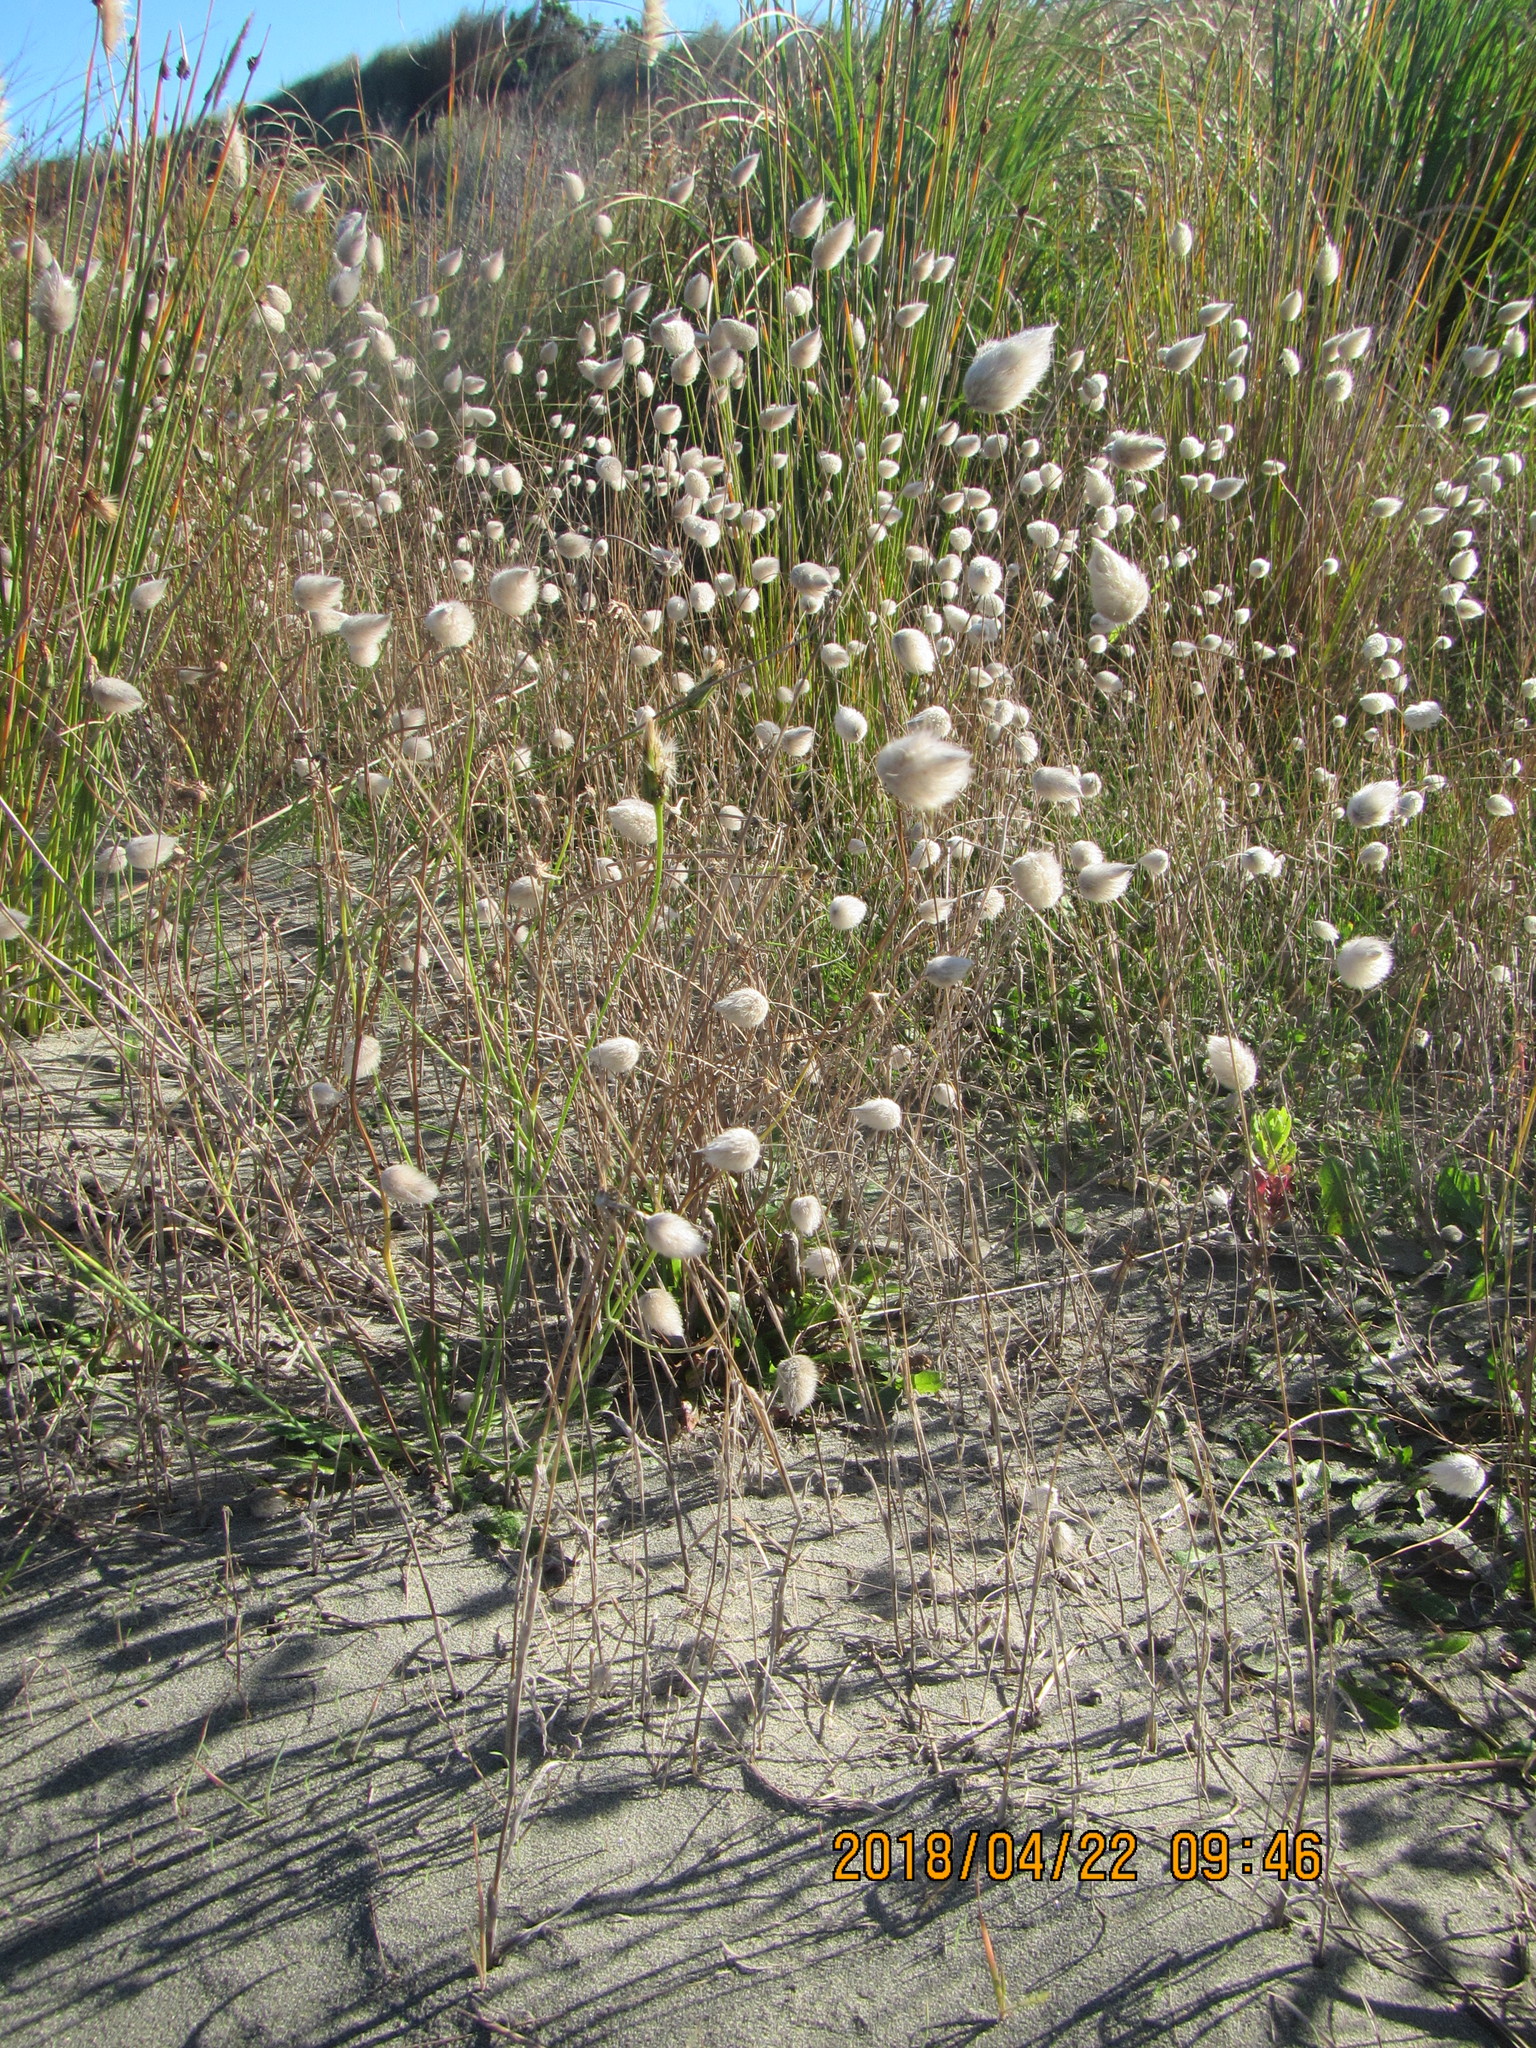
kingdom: Plantae
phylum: Tracheophyta
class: Liliopsida
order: Poales
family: Poaceae
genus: Lagurus
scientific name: Lagurus ovatus
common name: Hare's-tail
